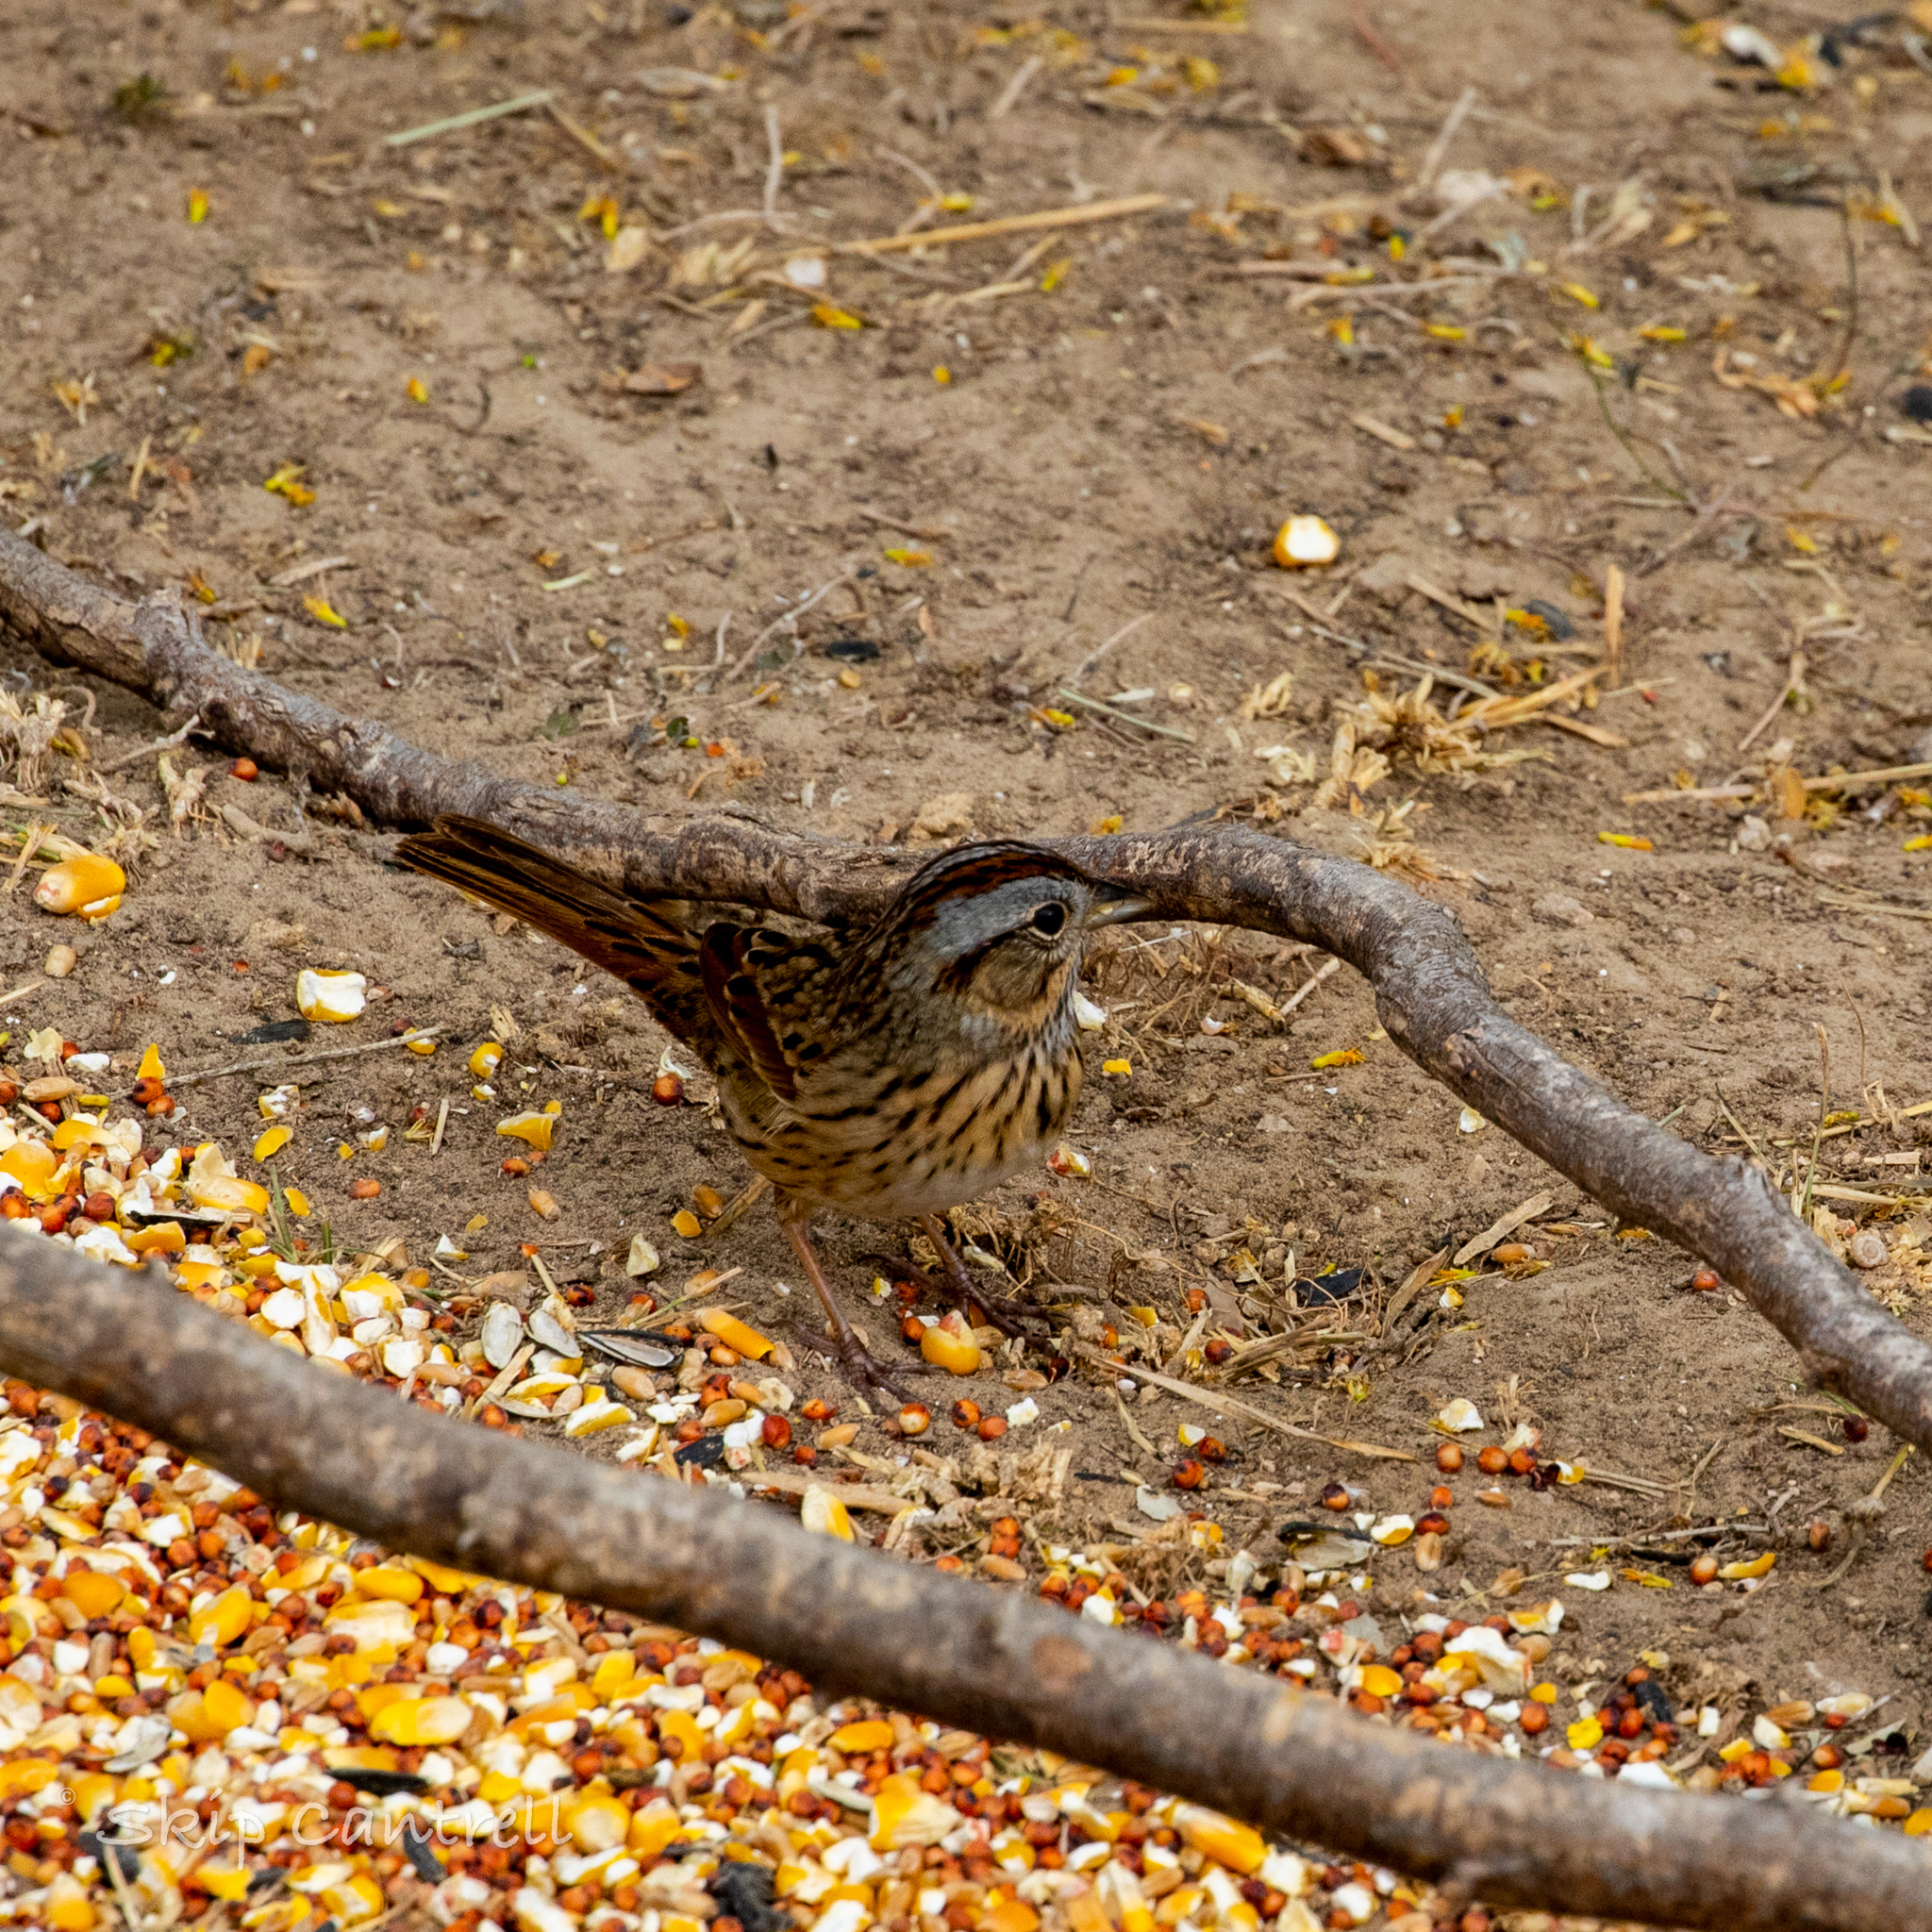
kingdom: Animalia
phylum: Chordata
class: Aves
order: Passeriformes
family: Passerellidae
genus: Melospiza
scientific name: Melospiza lincolnii
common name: Lincoln's sparrow
